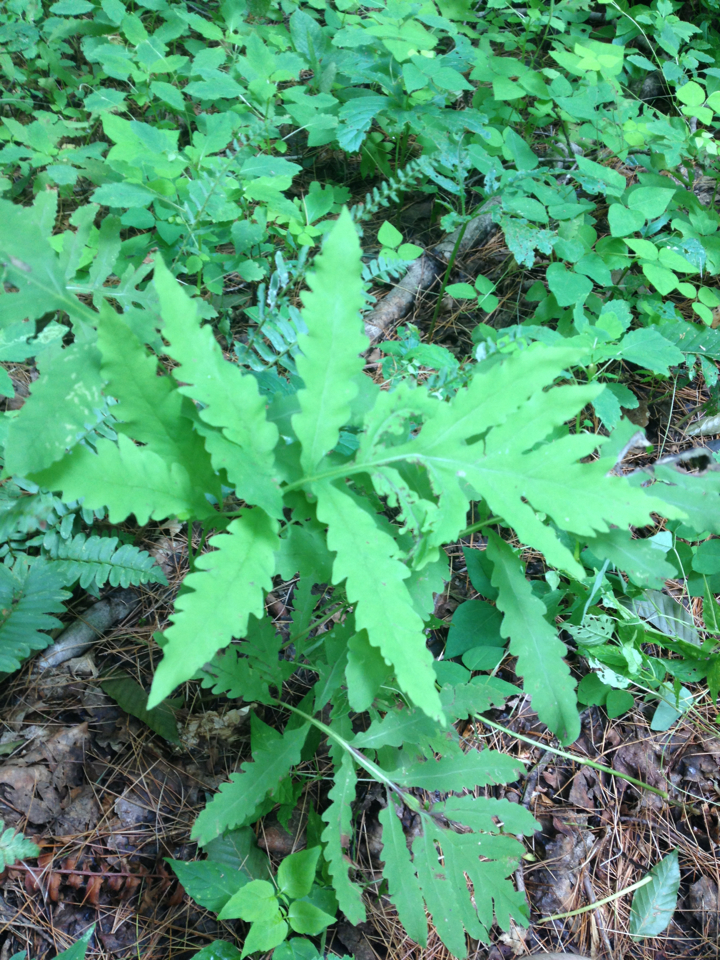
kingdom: Plantae
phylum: Tracheophyta
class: Polypodiopsida
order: Polypodiales
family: Onocleaceae
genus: Onoclea
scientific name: Onoclea sensibilis
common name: Sensitive fern
